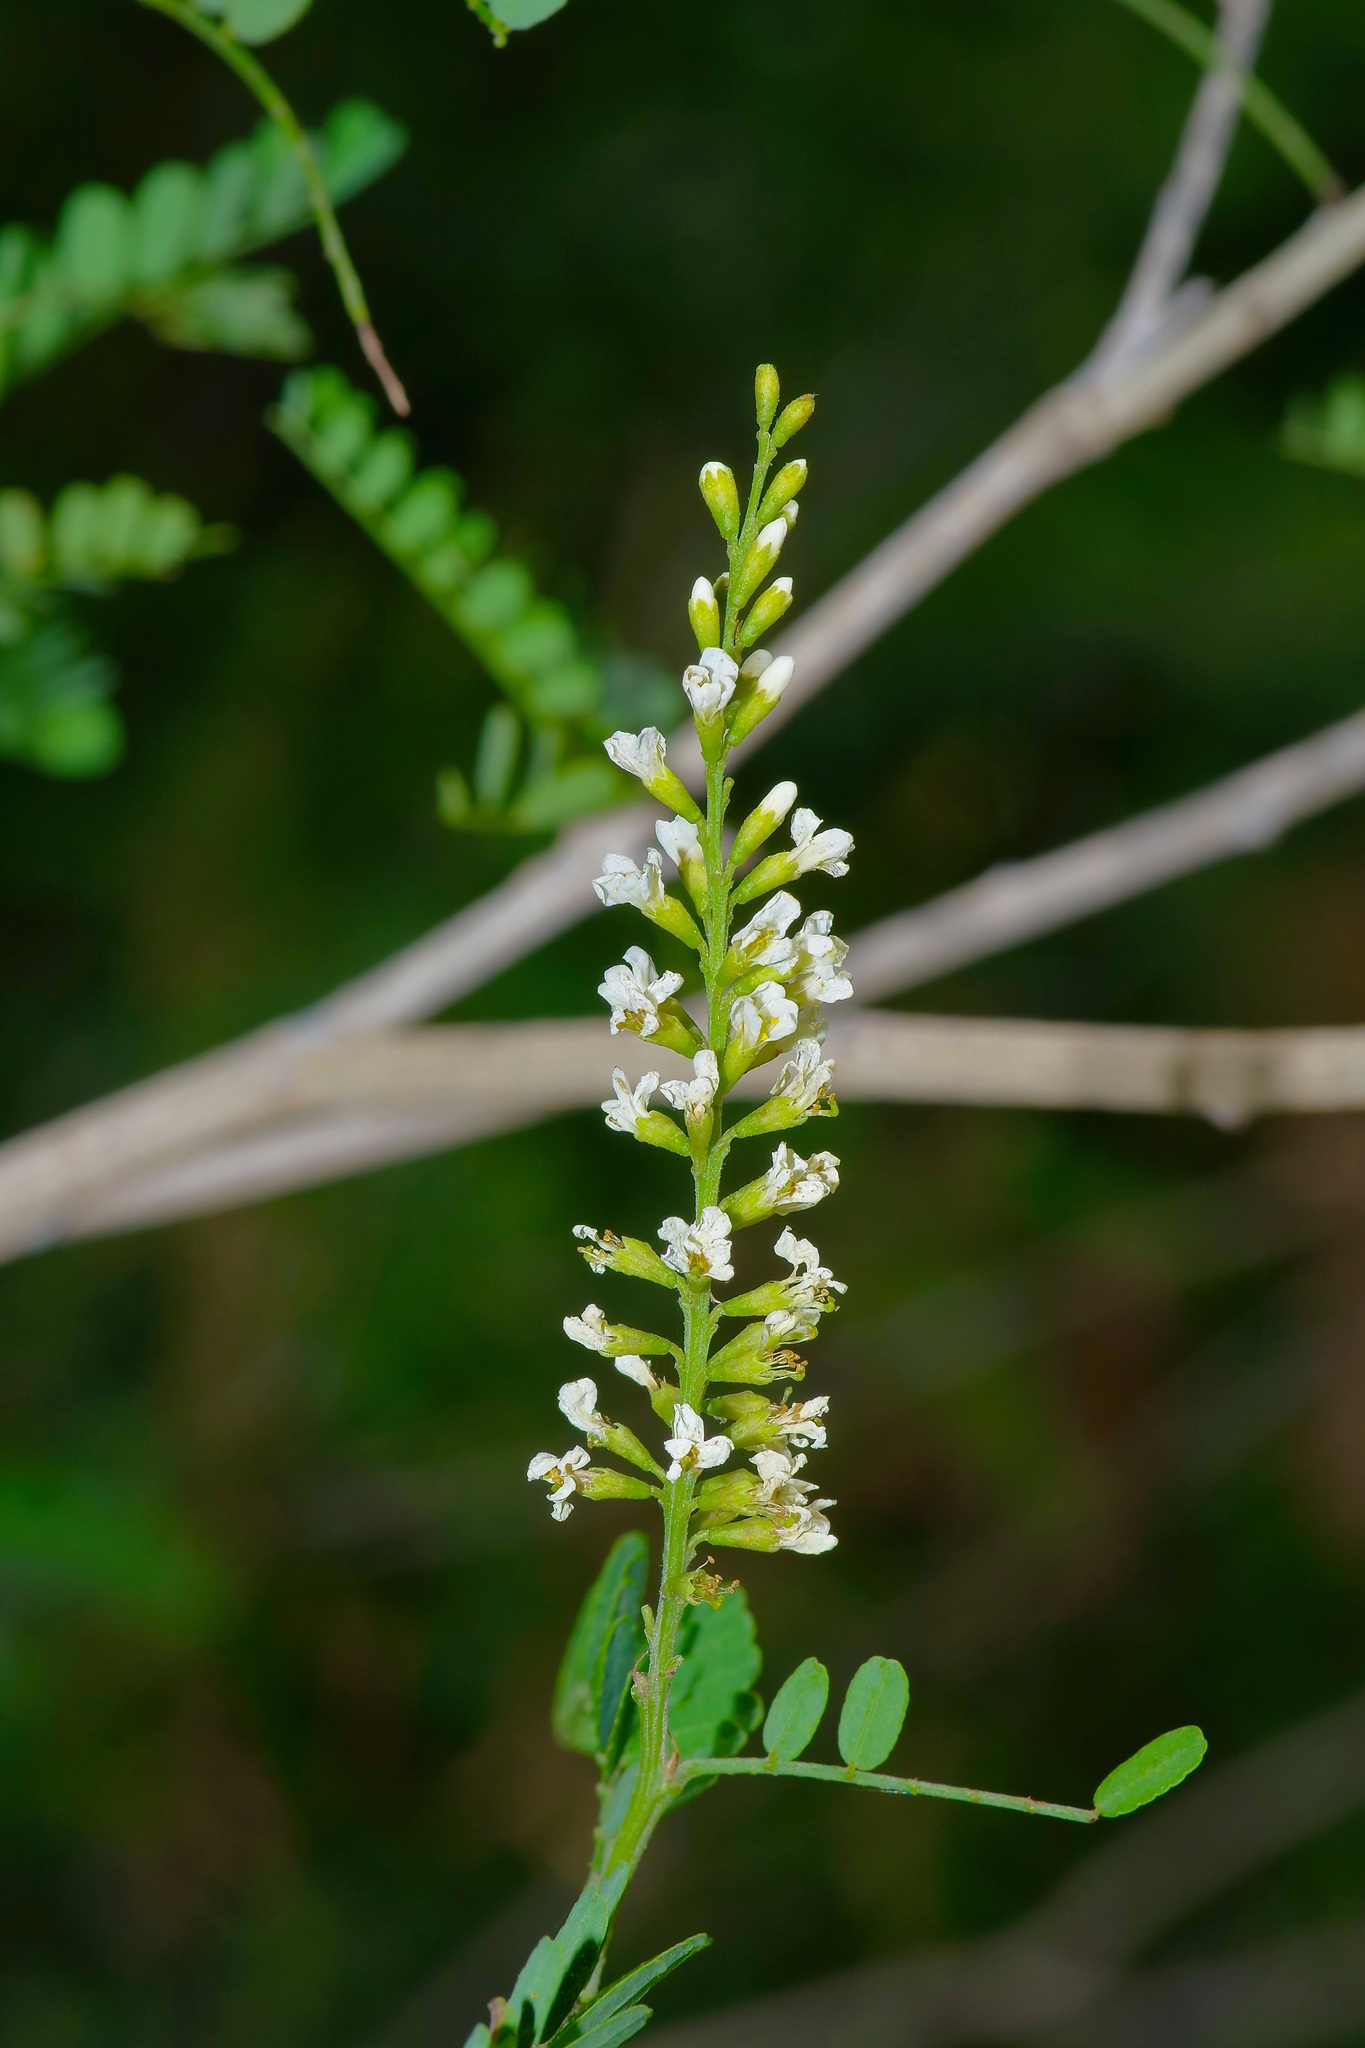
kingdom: Plantae
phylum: Tracheophyta
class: Magnoliopsida
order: Fabales
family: Fabaceae
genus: Eysenhardtia
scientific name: Eysenhardtia texana
